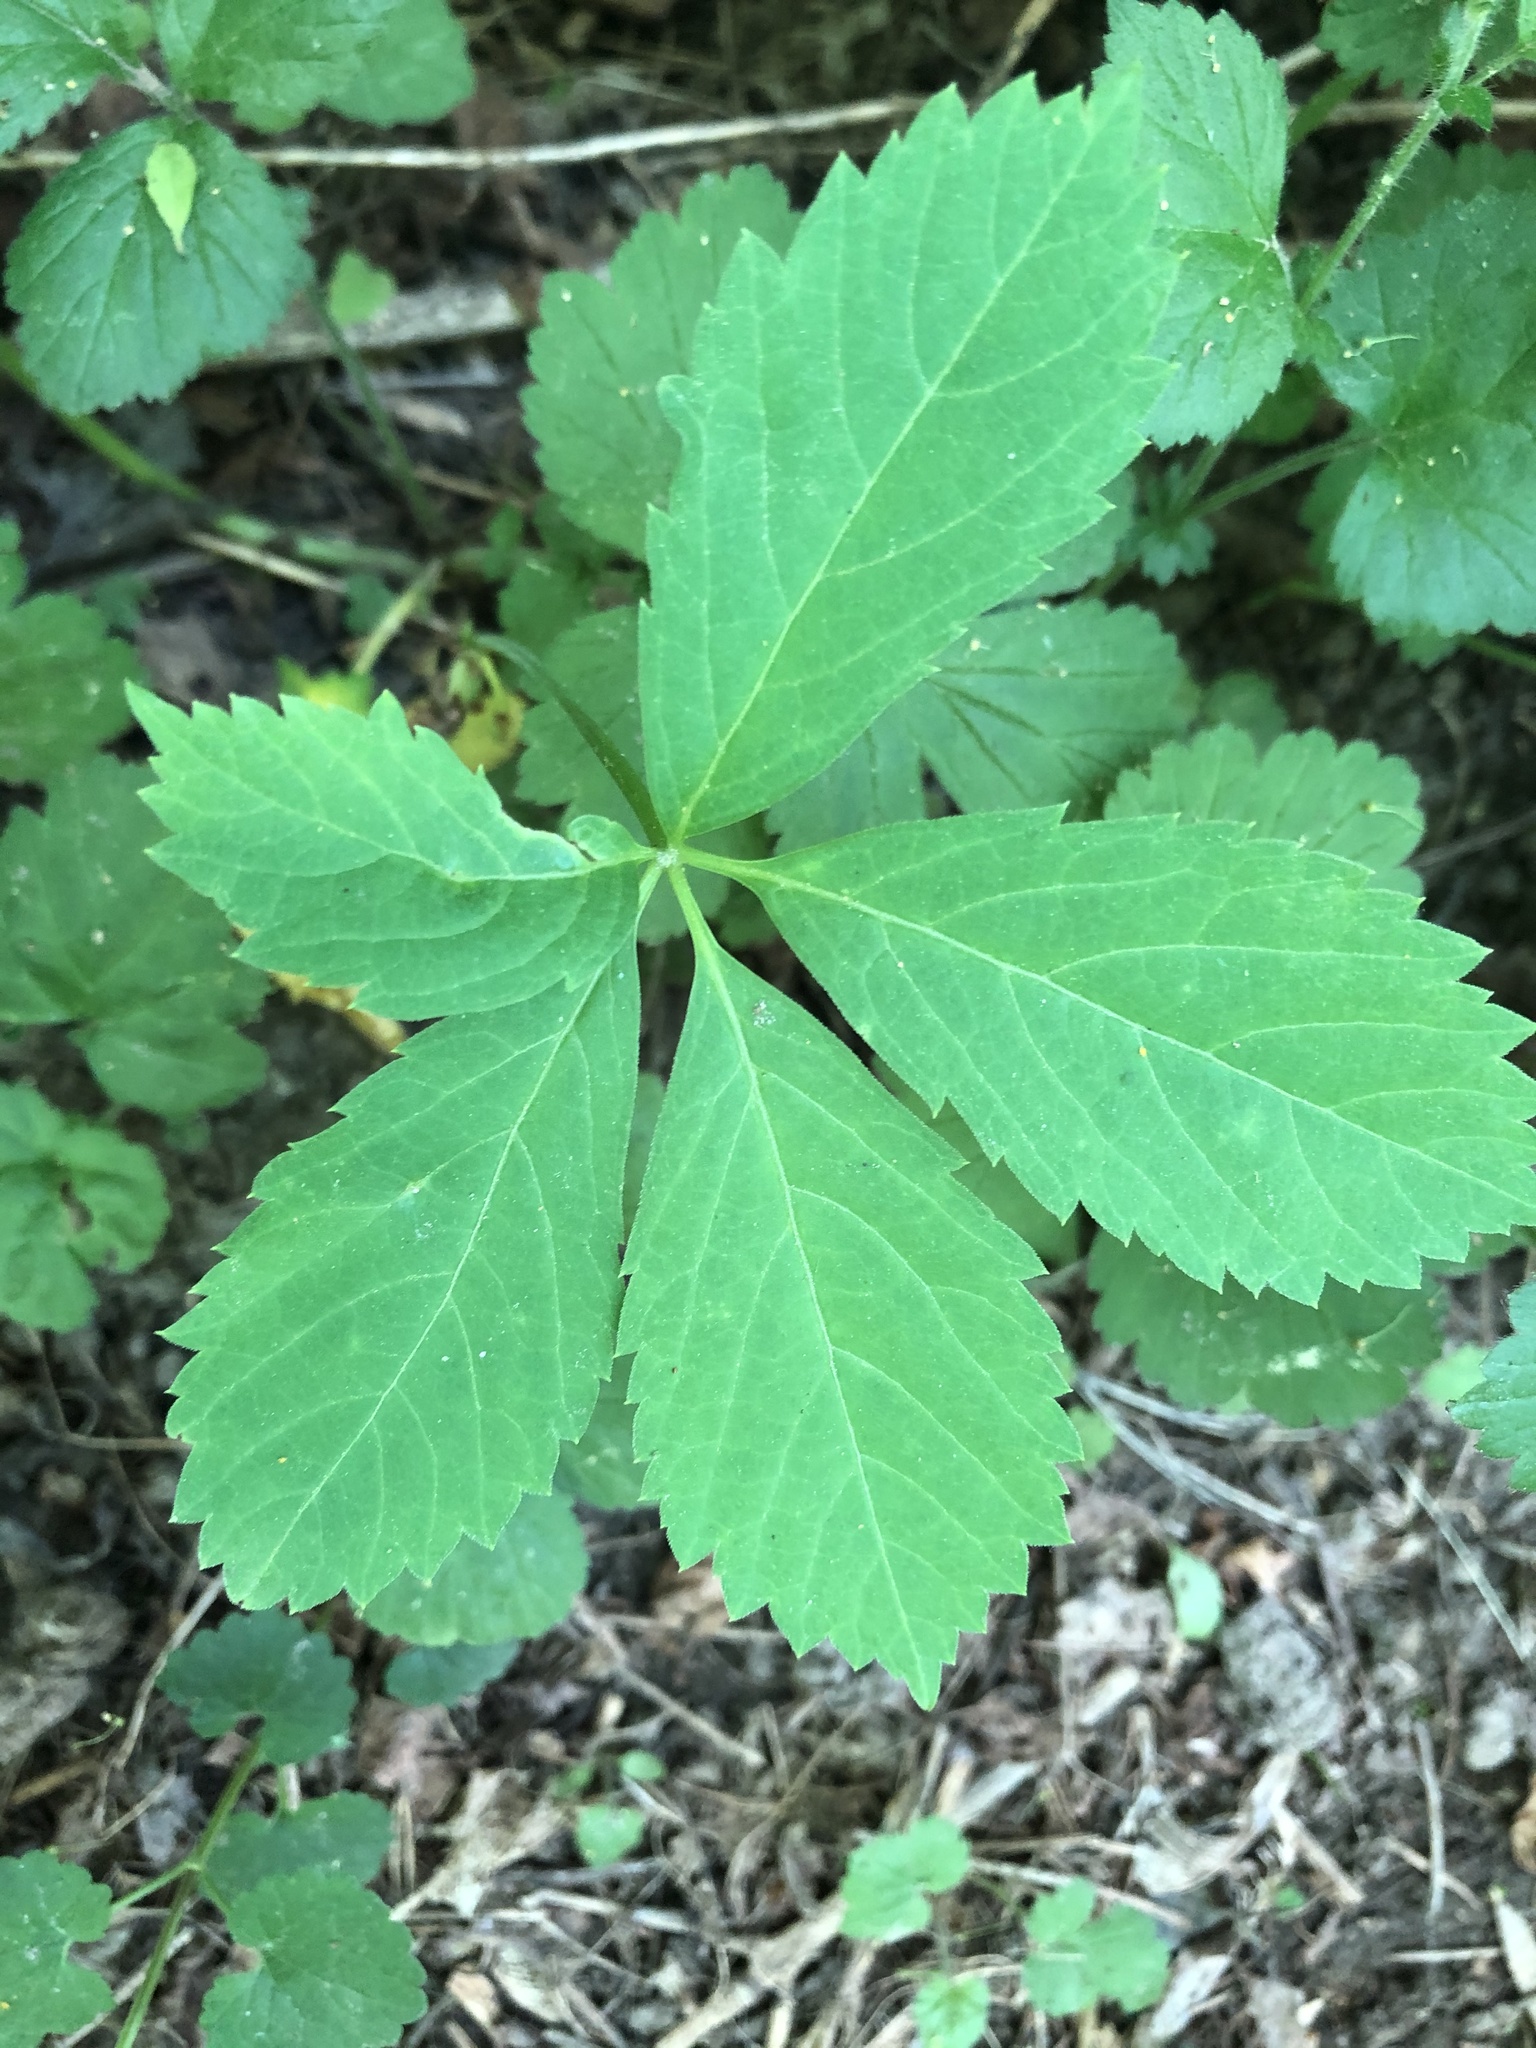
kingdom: Plantae
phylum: Tracheophyta
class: Magnoliopsida
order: Vitales
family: Vitaceae
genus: Parthenocissus
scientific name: Parthenocissus quinquefolia
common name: Virginia-creeper
